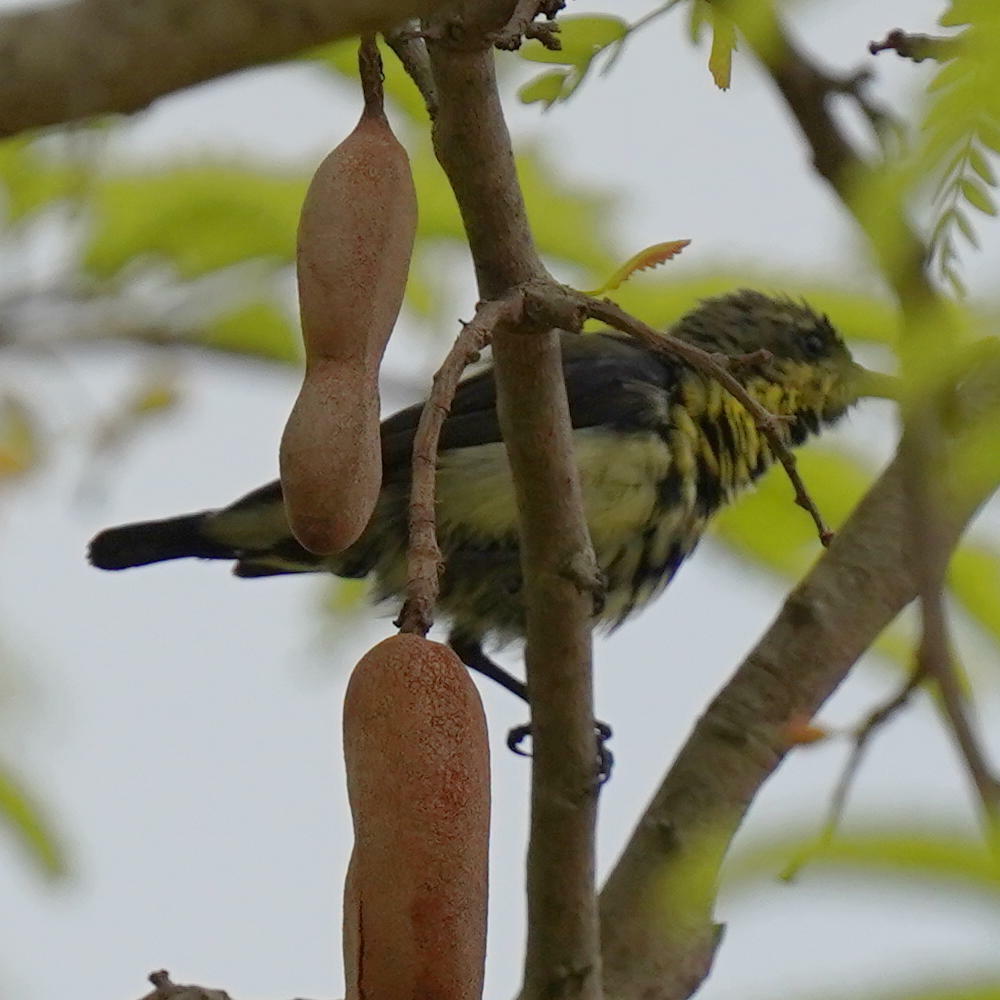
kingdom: Animalia
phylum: Chordata
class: Aves
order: Passeriformes
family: Nectariniidae
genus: Cinnyris
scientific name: Cinnyris asiaticus
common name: Purple sunbird
